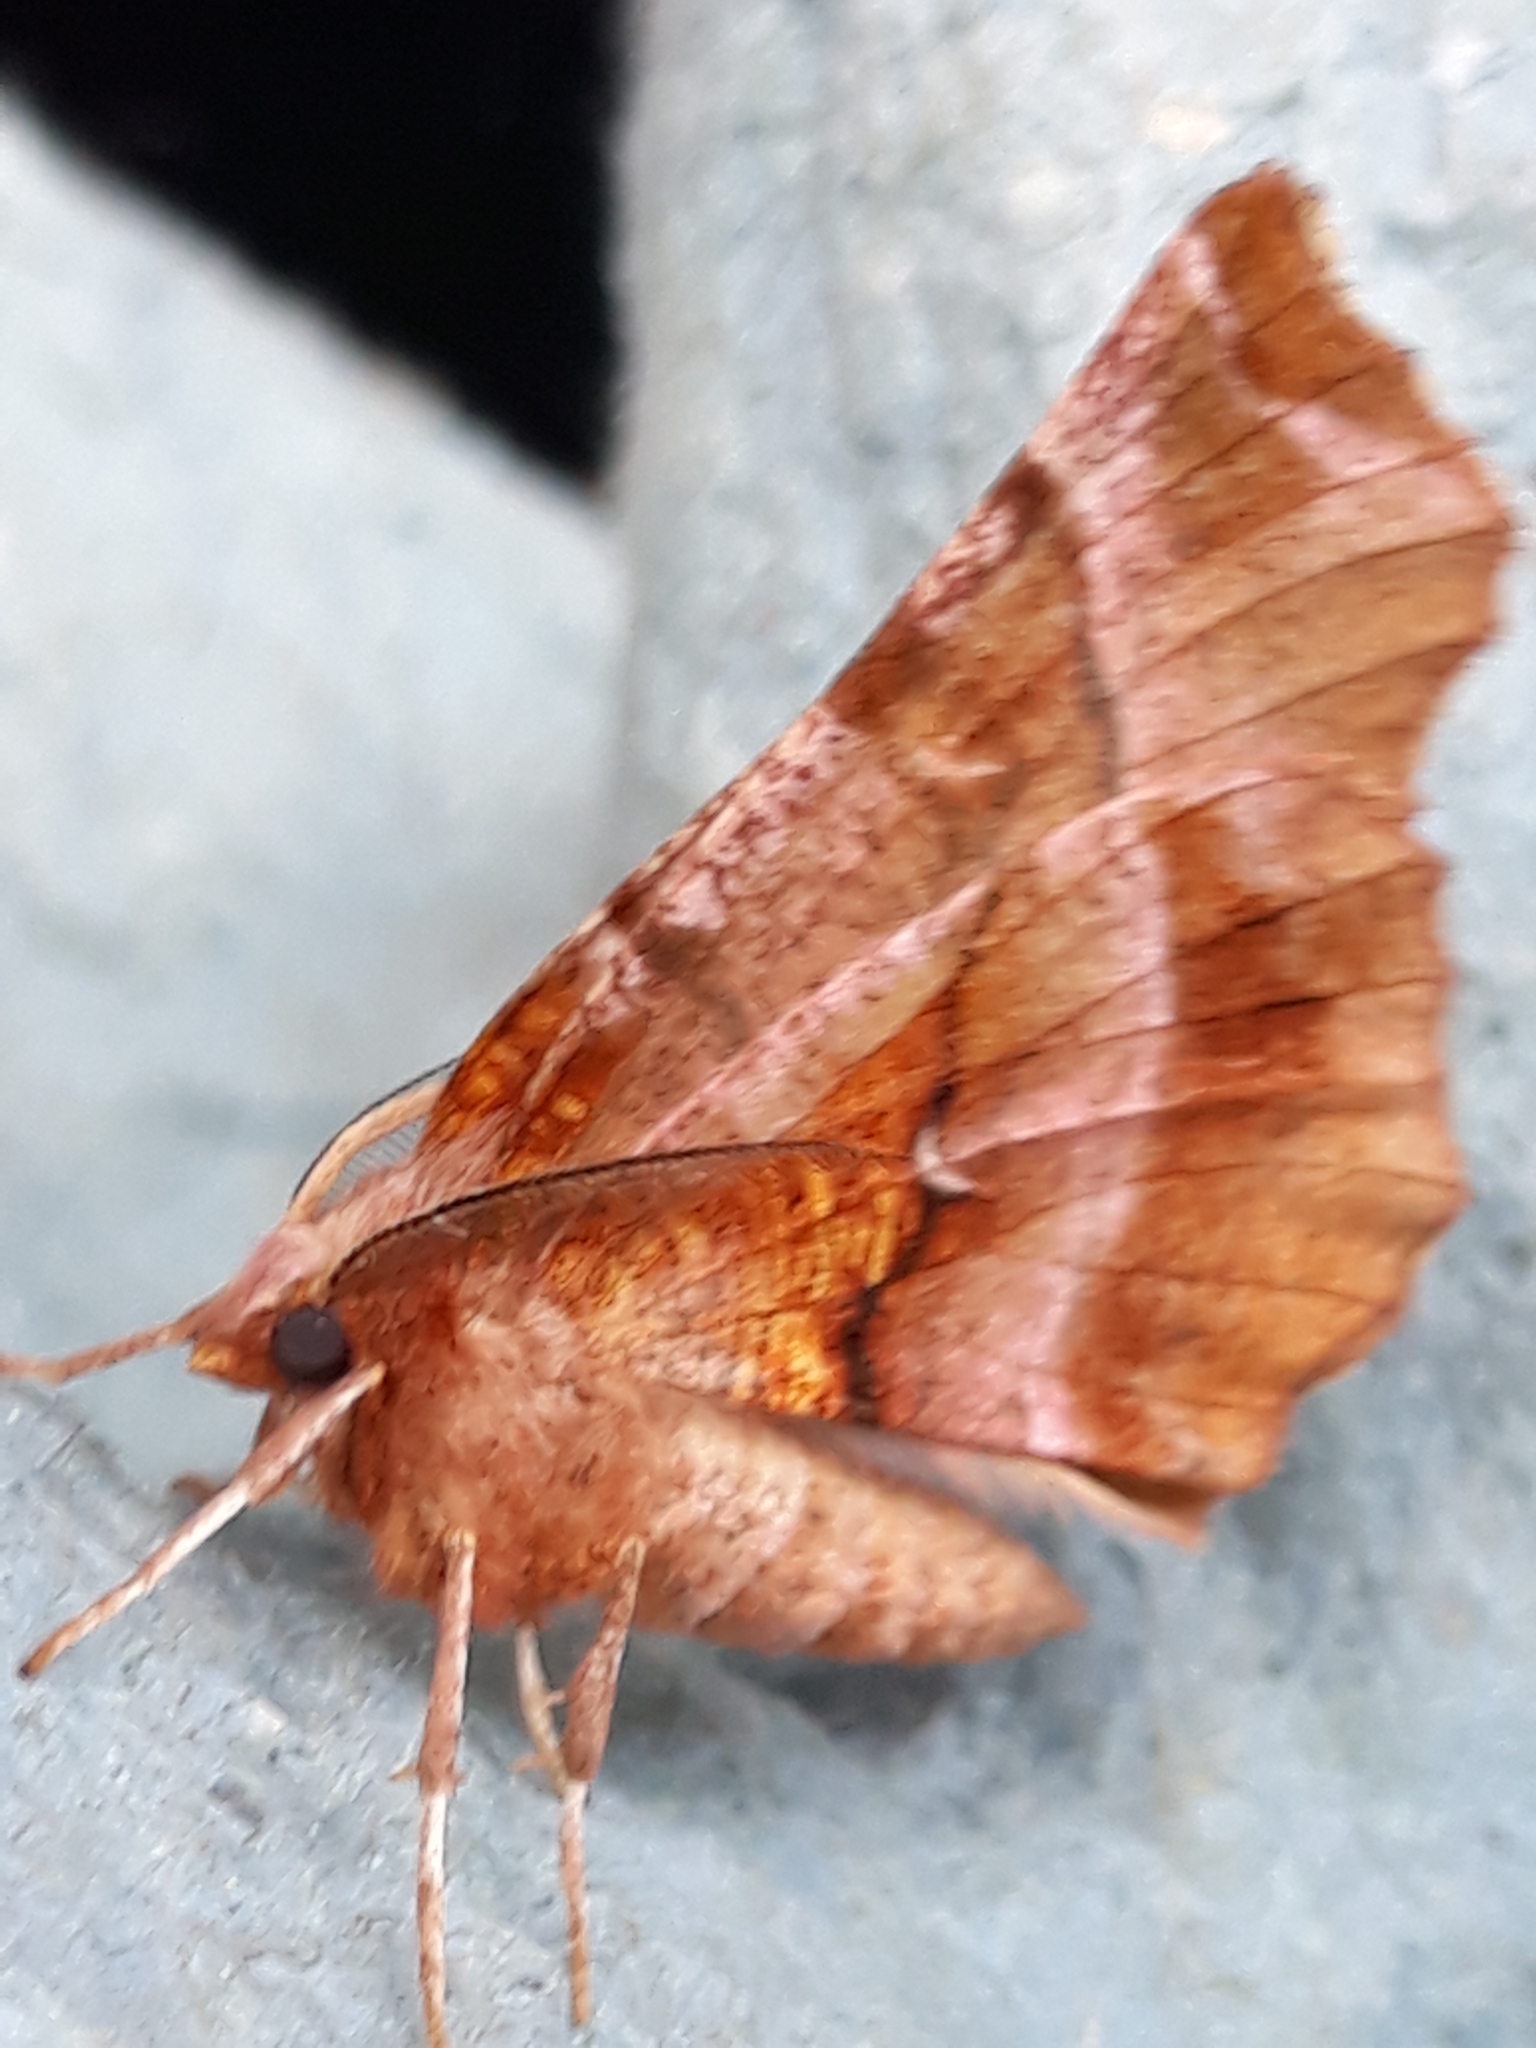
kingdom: Animalia
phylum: Arthropoda
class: Insecta
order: Lepidoptera
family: Geometridae
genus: Selenia
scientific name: Selenia dentaria
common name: Early thorn
